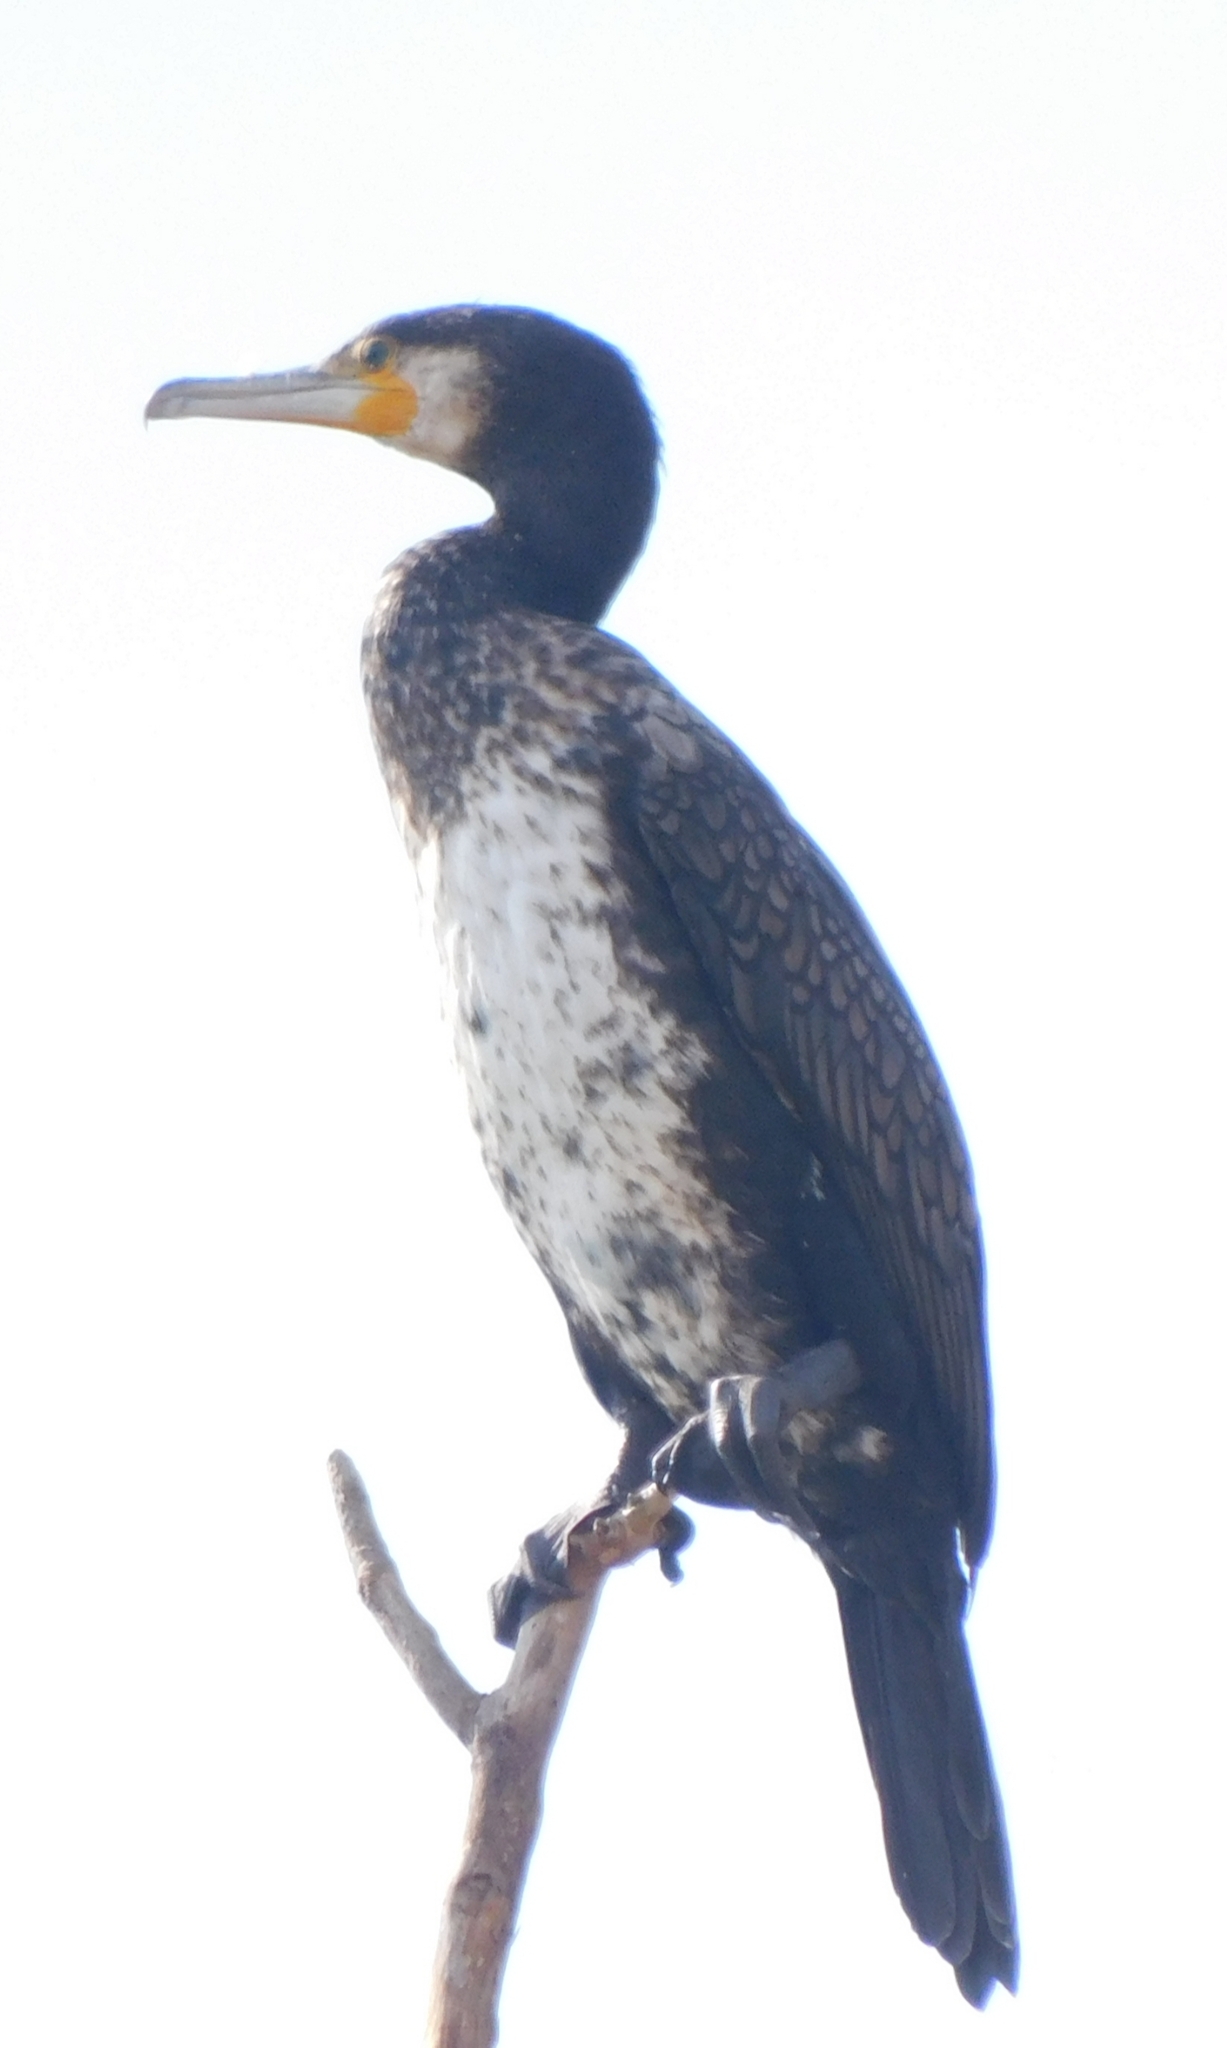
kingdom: Animalia
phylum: Chordata
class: Aves
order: Suliformes
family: Phalacrocoracidae
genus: Phalacrocorax
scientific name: Phalacrocorax carbo
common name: Great cormorant
